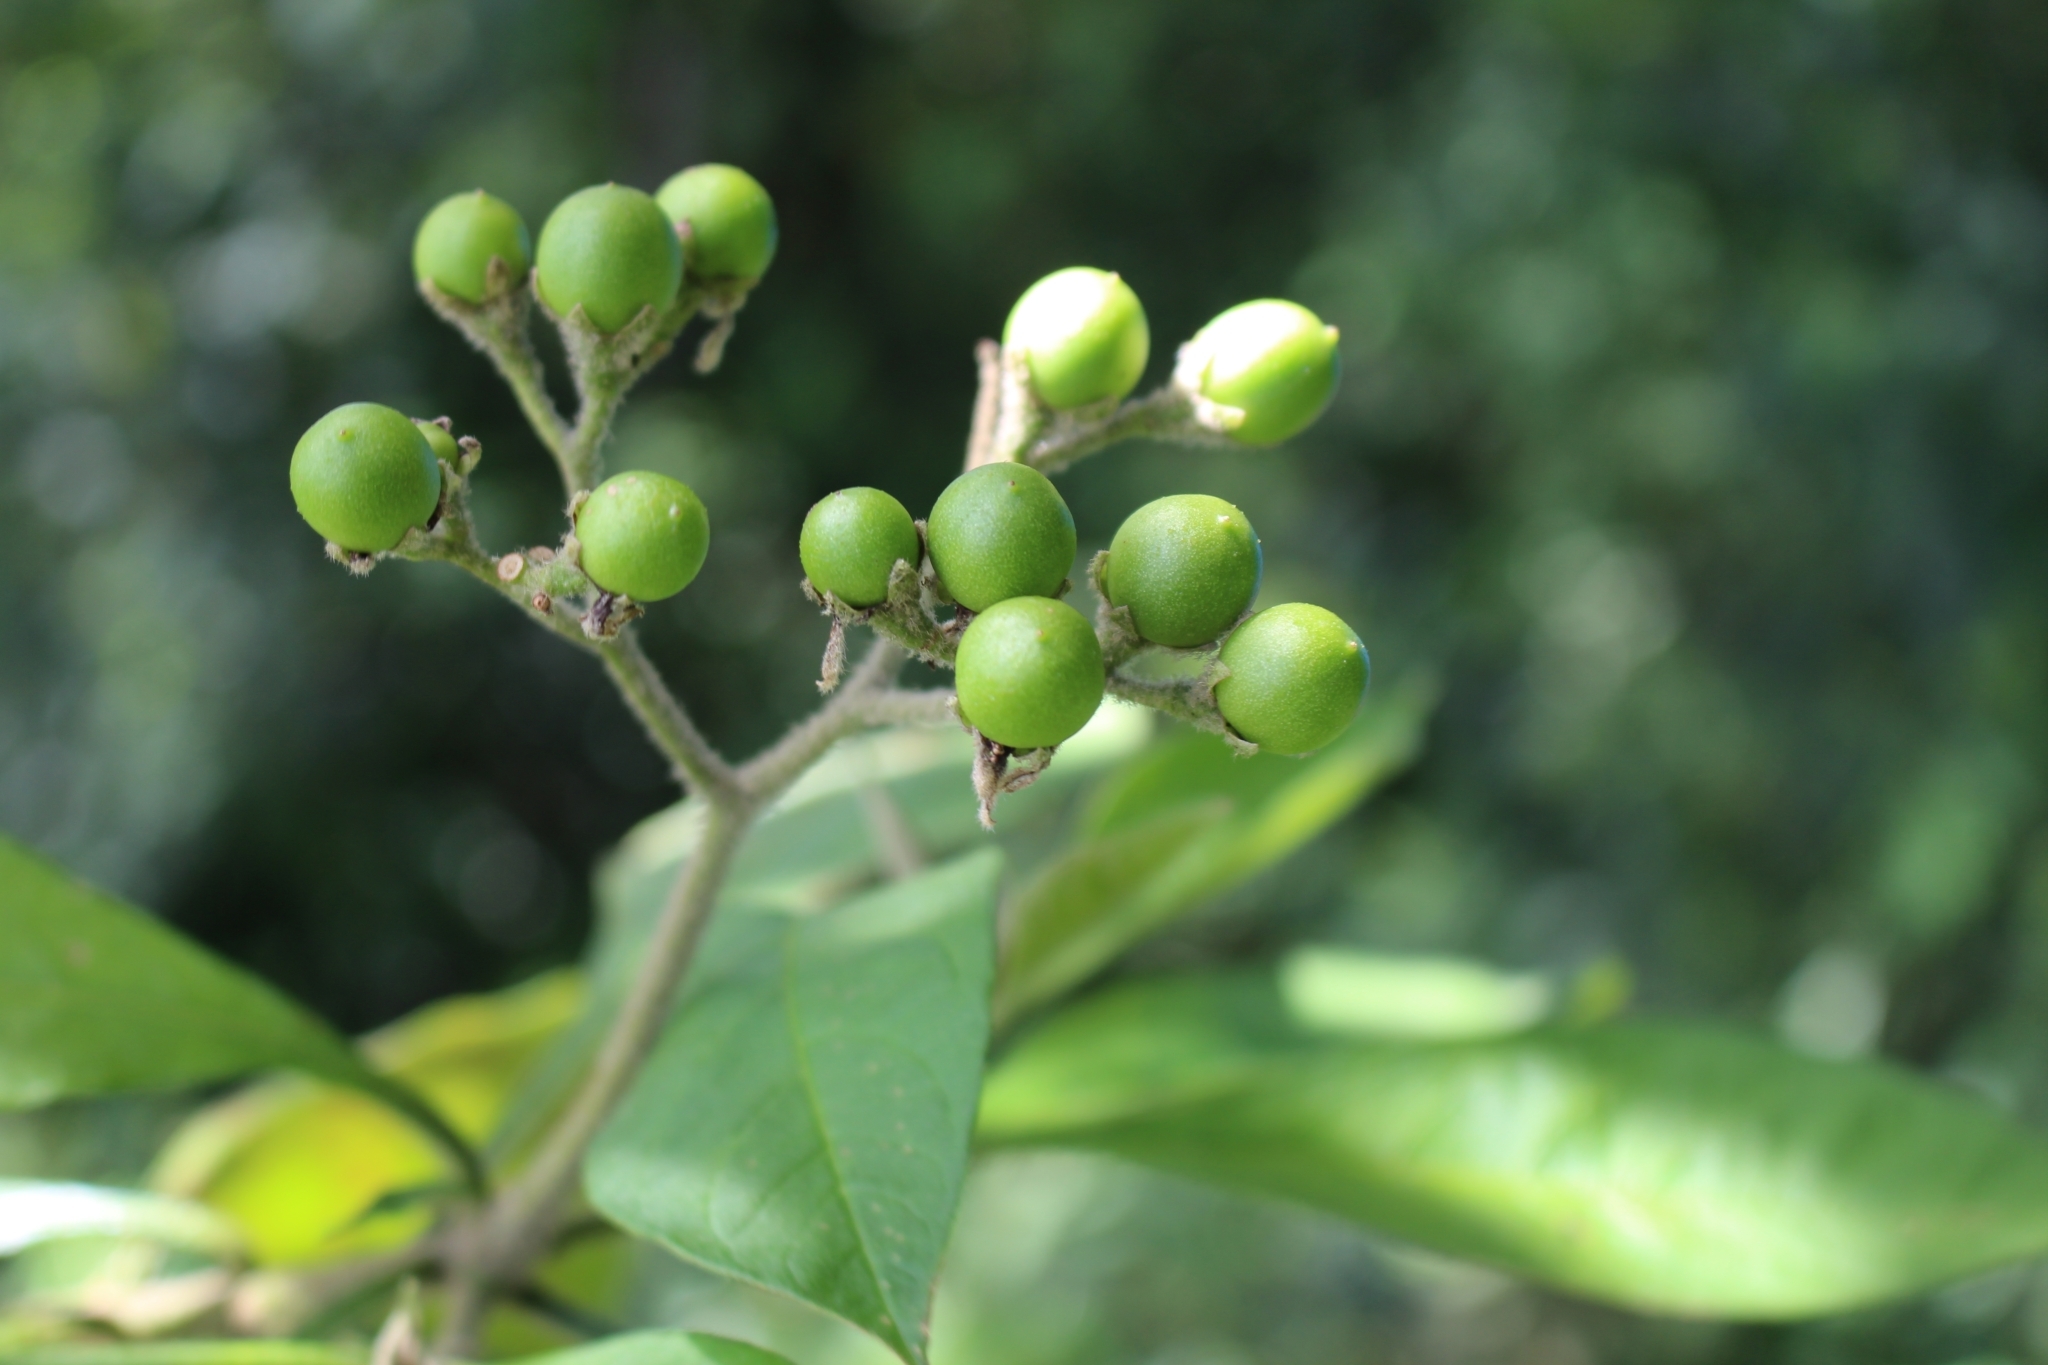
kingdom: Plantae
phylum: Tracheophyta
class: Magnoliopsida
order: Solanales
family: Solanaceae
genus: Solanum
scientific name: Solanum umbellatum
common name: Nightshade
